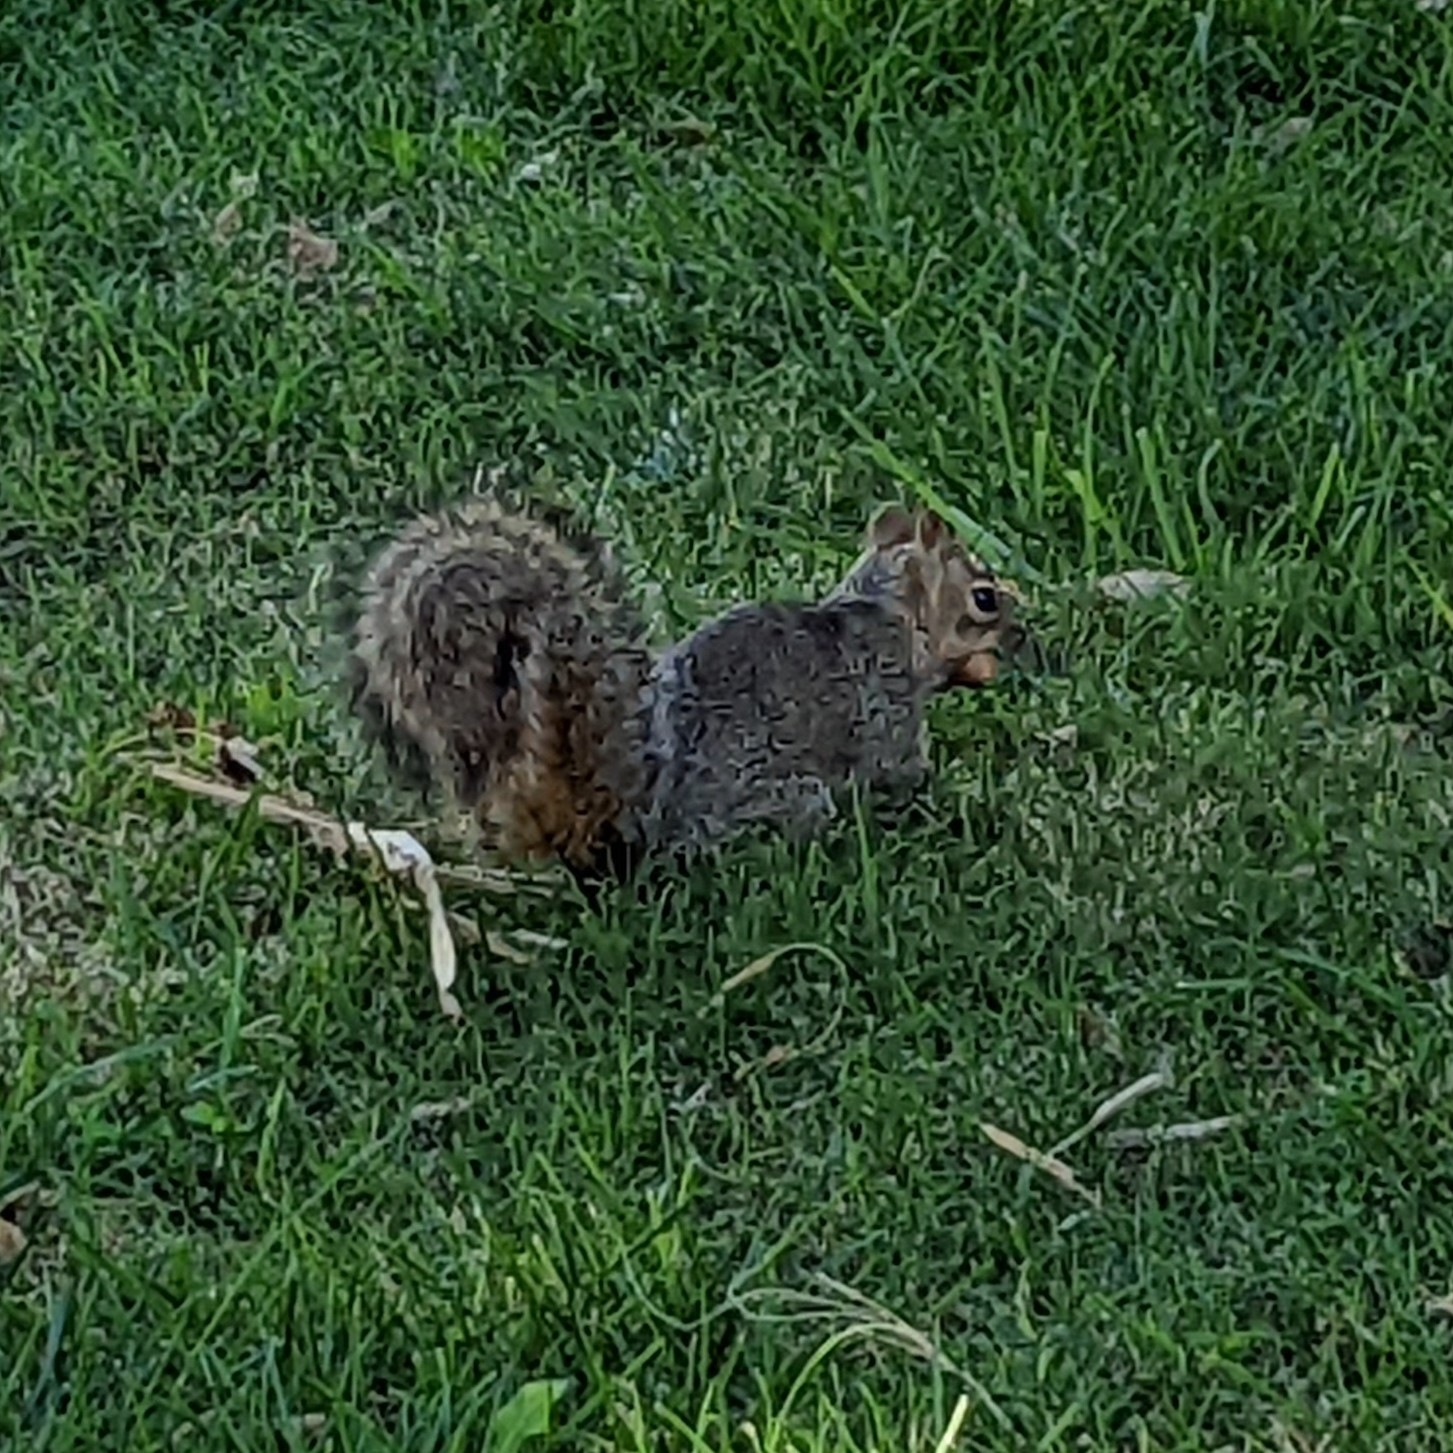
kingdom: Animalia
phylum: Chordata
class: Mammalia
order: Rodentia
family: Sciuridae
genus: Sciurus
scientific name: Sciurus niger
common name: Fox squirrel
